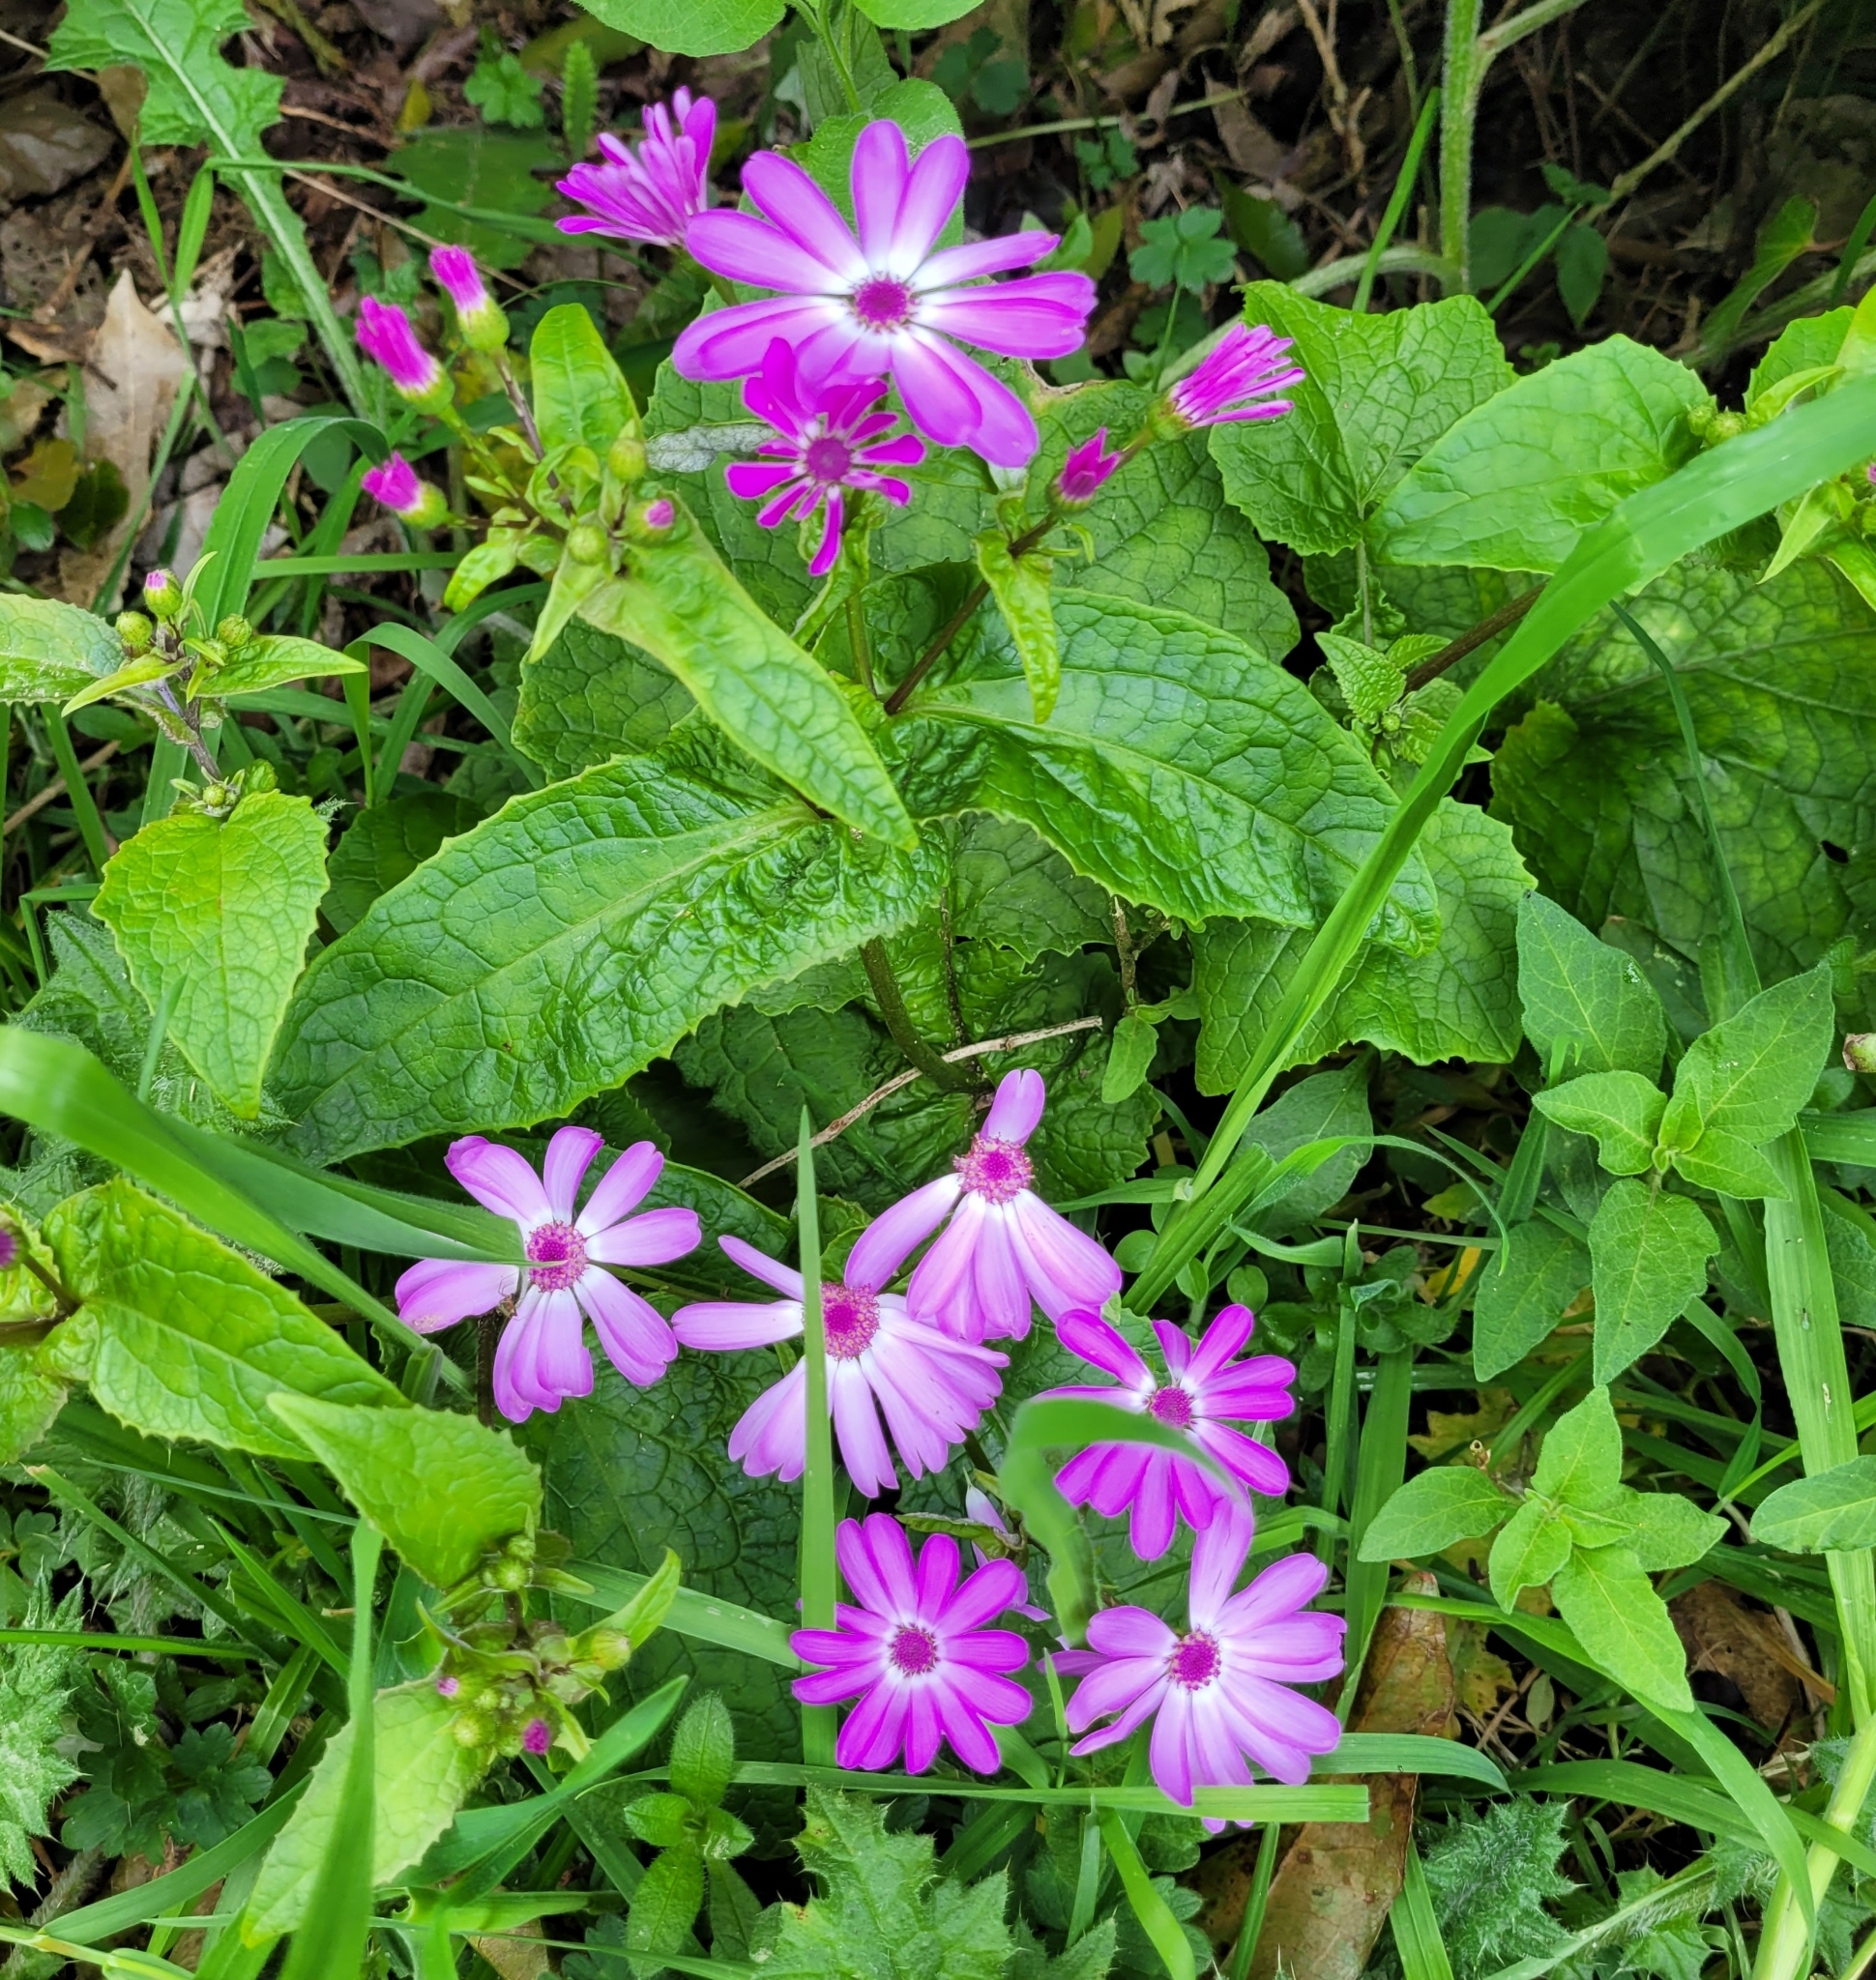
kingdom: Plantae
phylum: Tracheophyta
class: Magnoliopsida
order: Asterales
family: Asteraceae
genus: Pericallis
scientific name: Pericallis hybrida
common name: Cineraria
